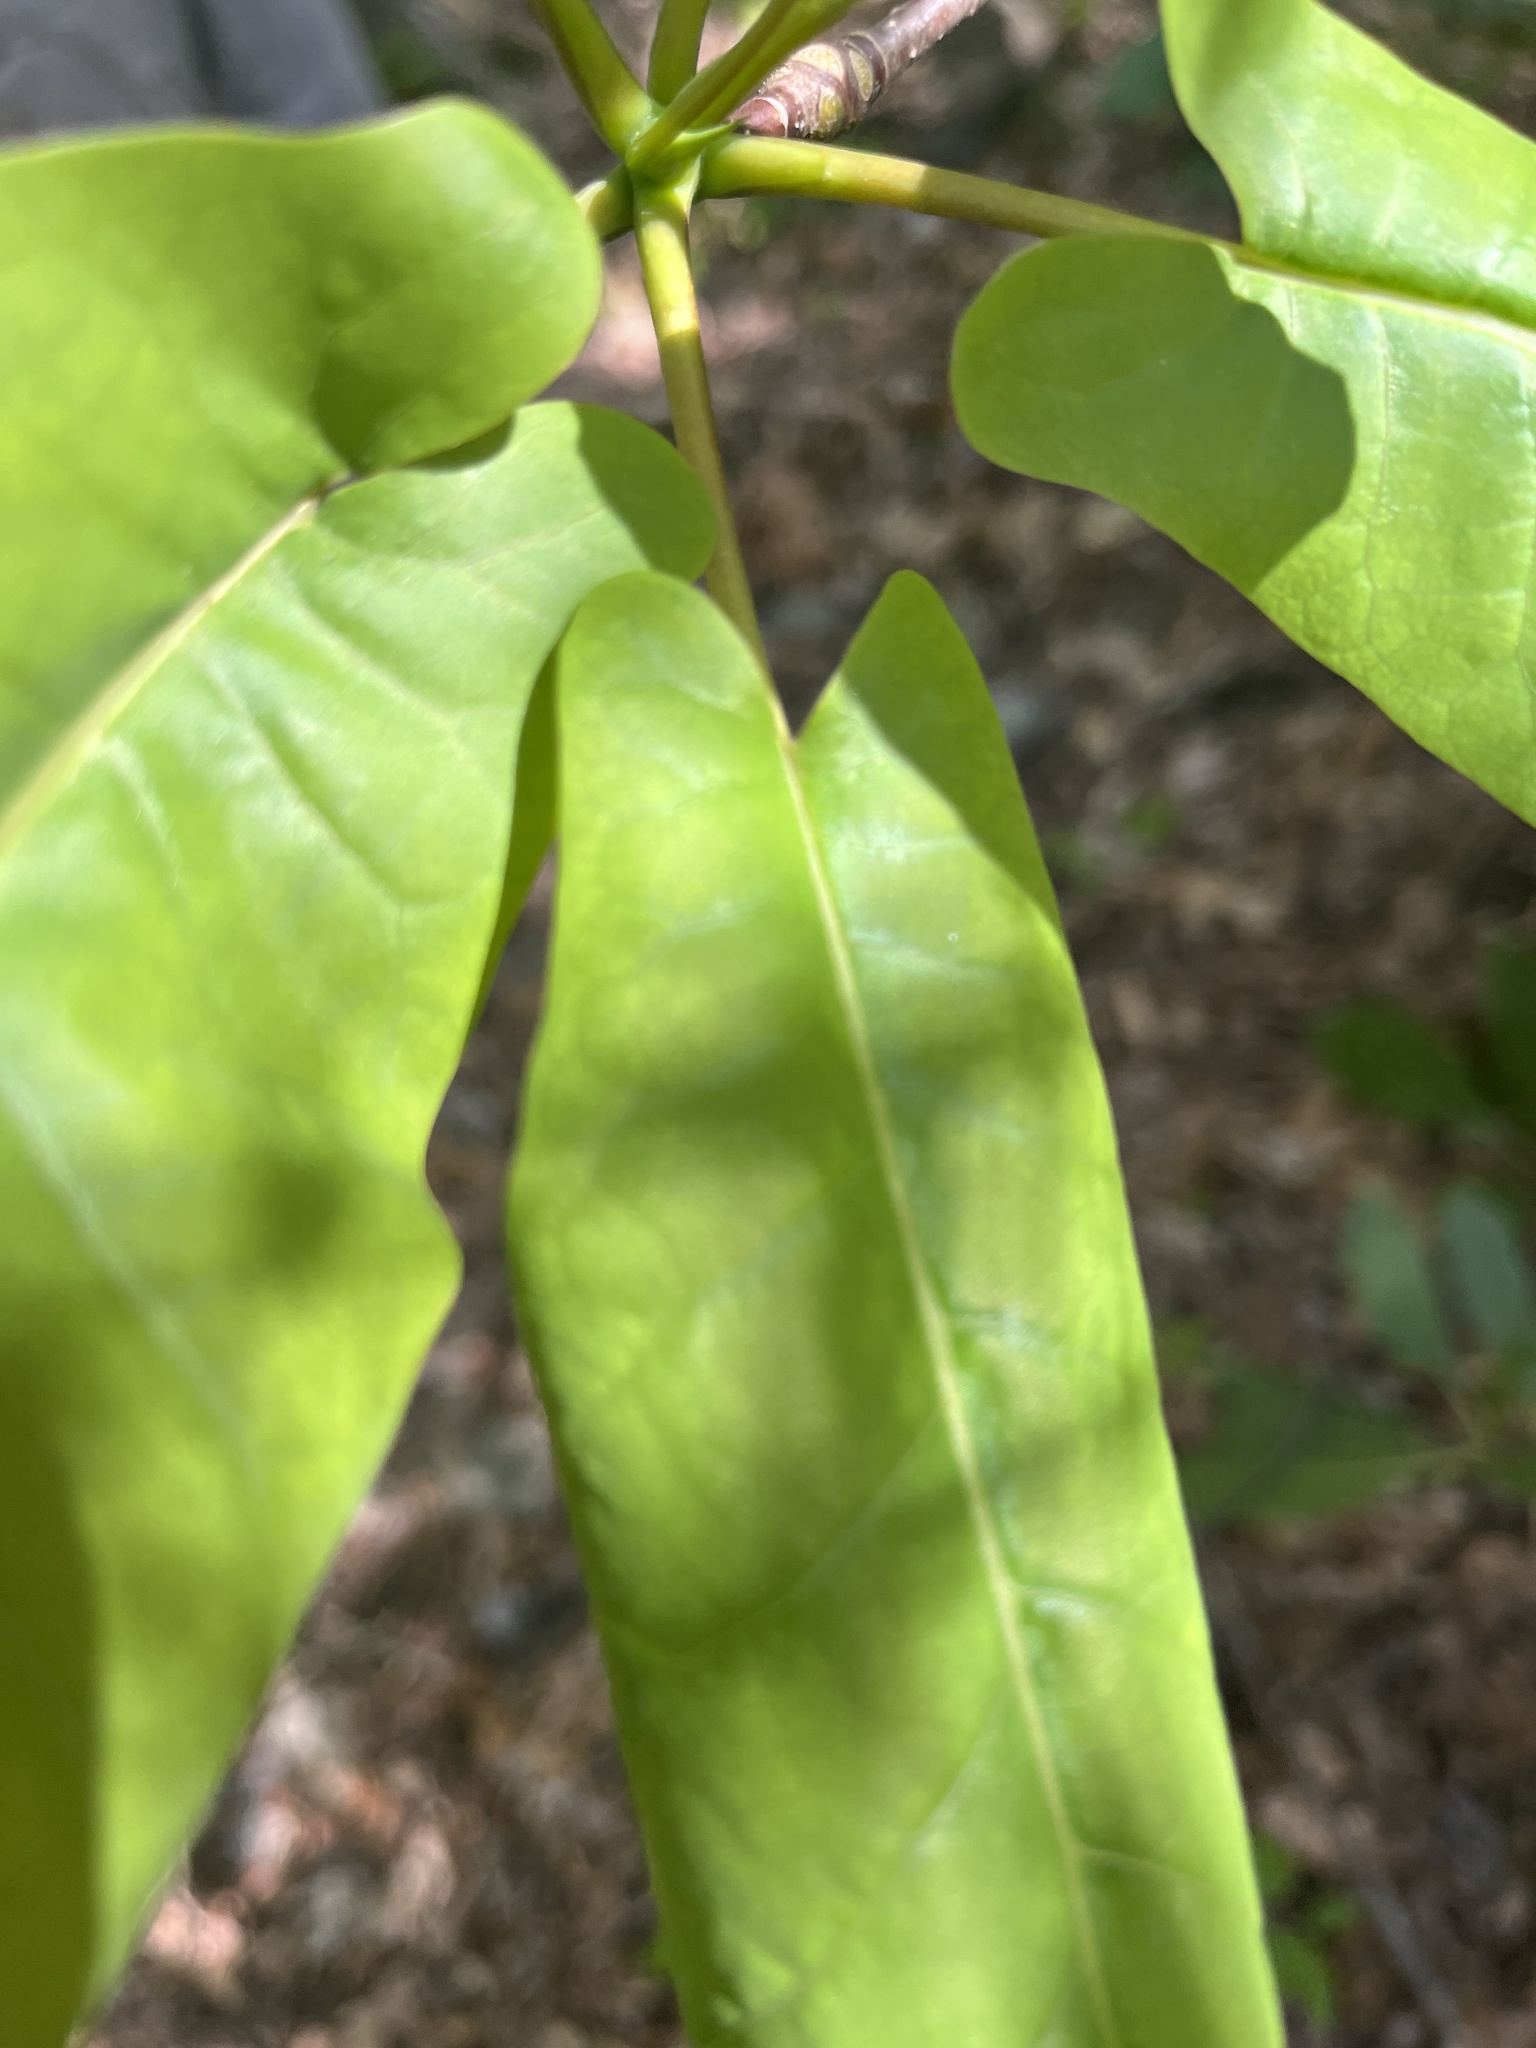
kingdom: Plantae
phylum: Tracheophyta
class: Magnoliopsida
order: Magnoliales
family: Magnoliaceae
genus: Magnolia
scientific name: Magnolia fraseri
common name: Fraser's magnolia
